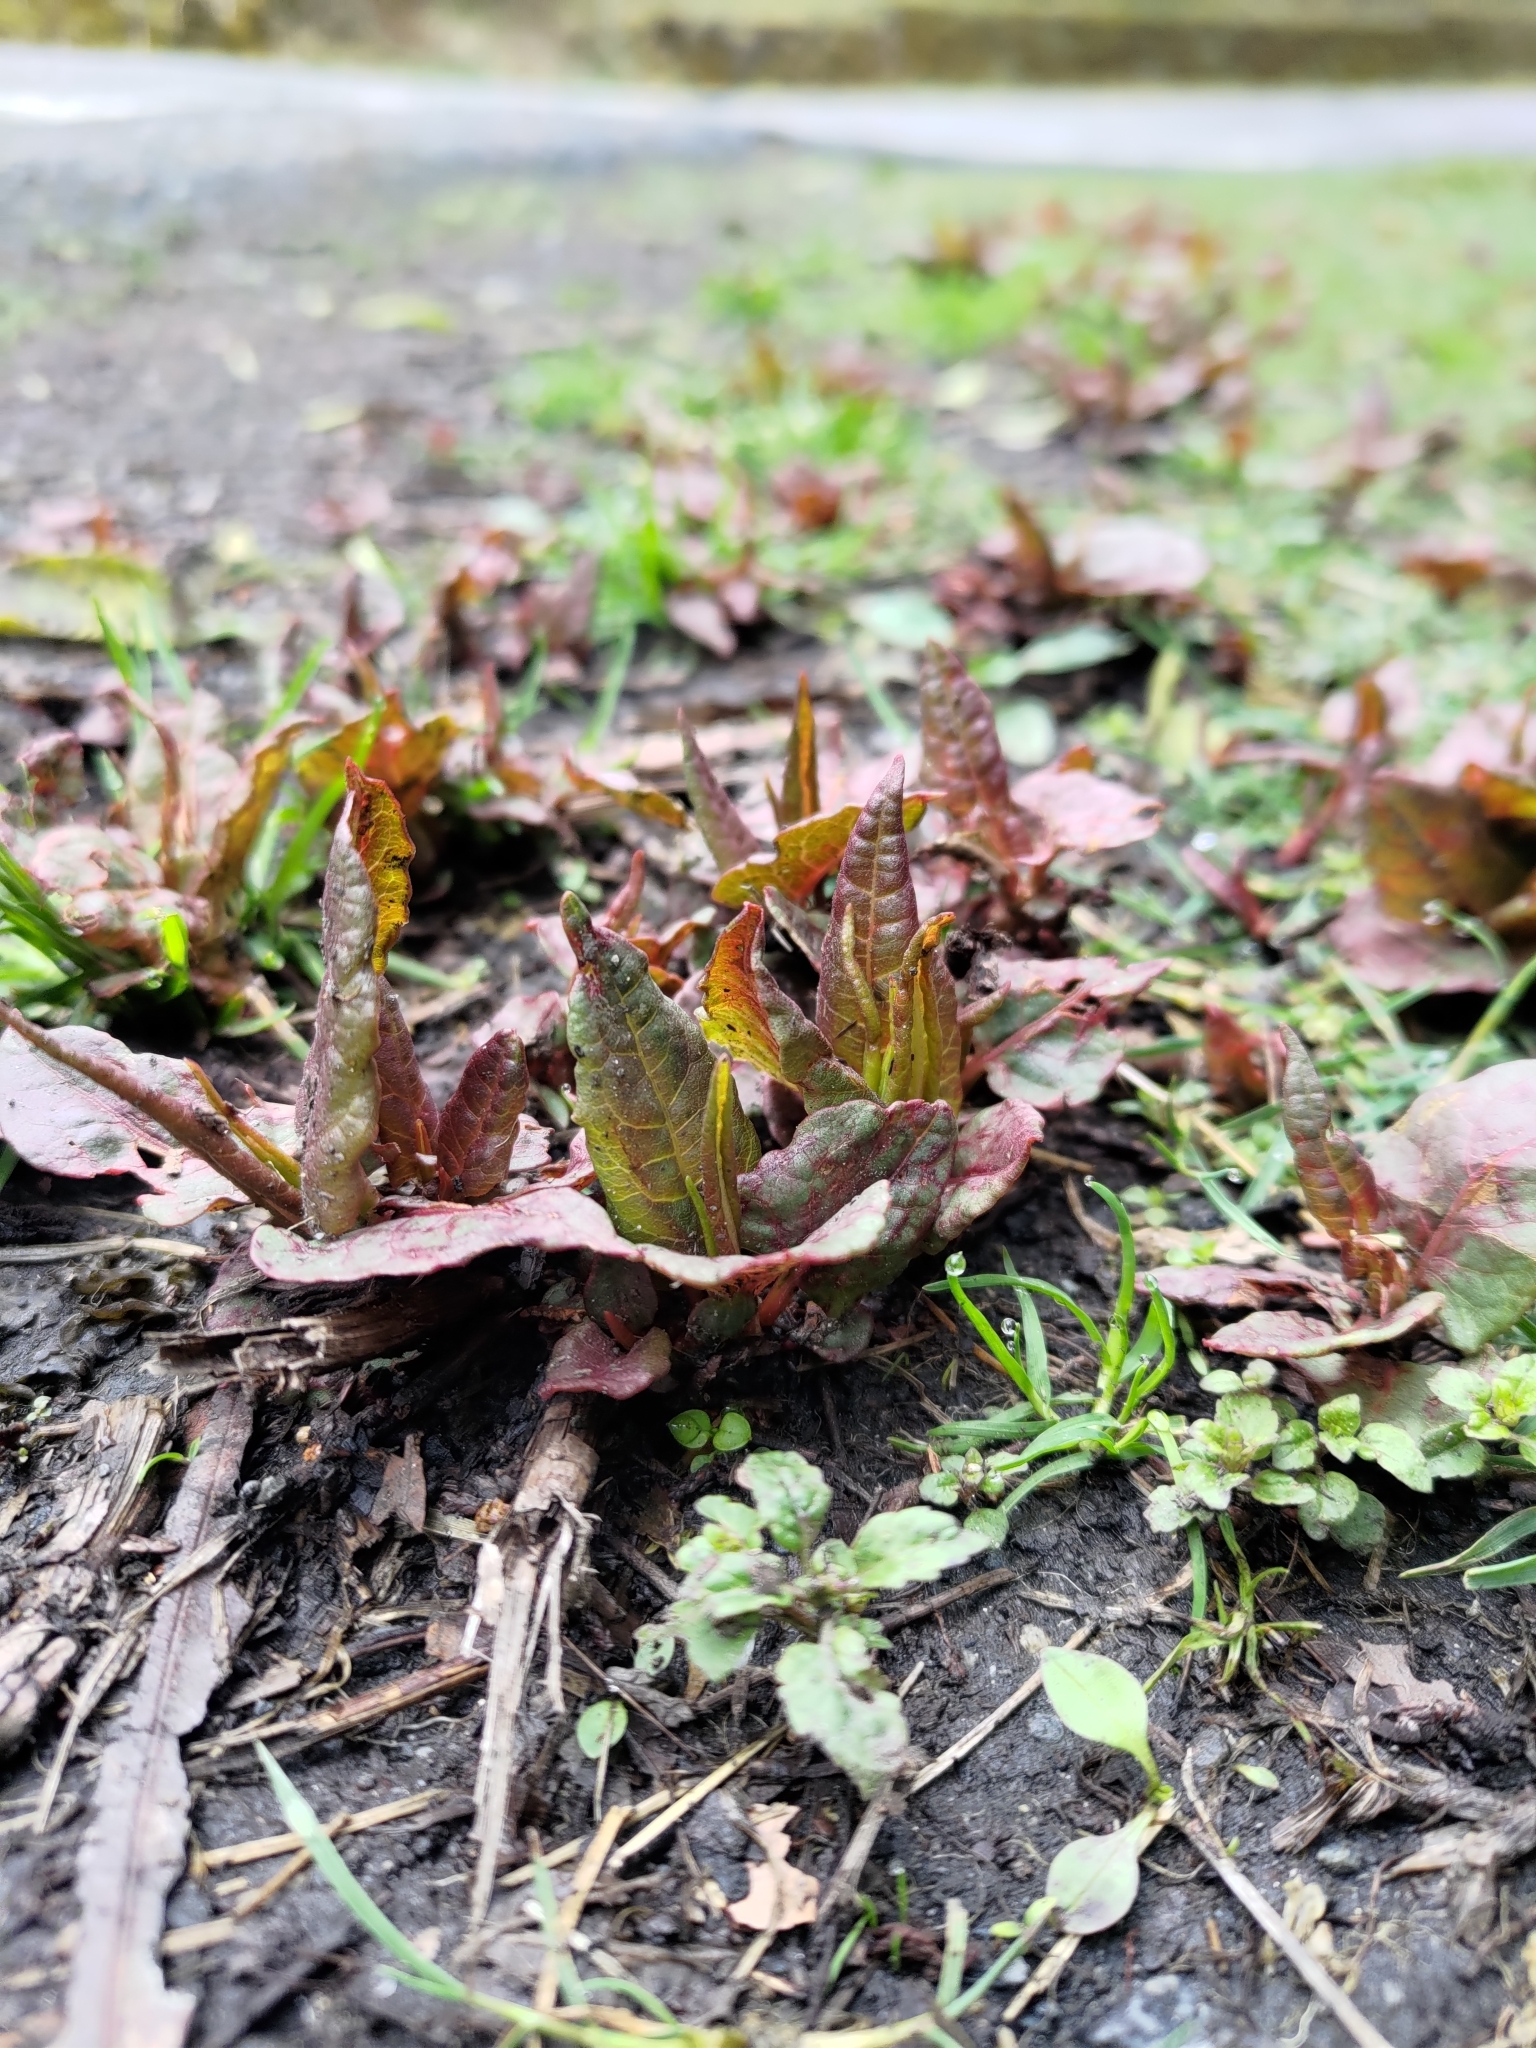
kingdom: Plantae
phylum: Tracheophyta
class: Magnoliopsida
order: Caryophyllales
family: Polygonaceae
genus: Reynoutria
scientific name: Reynoutria japonica
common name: Japanese knotweed
